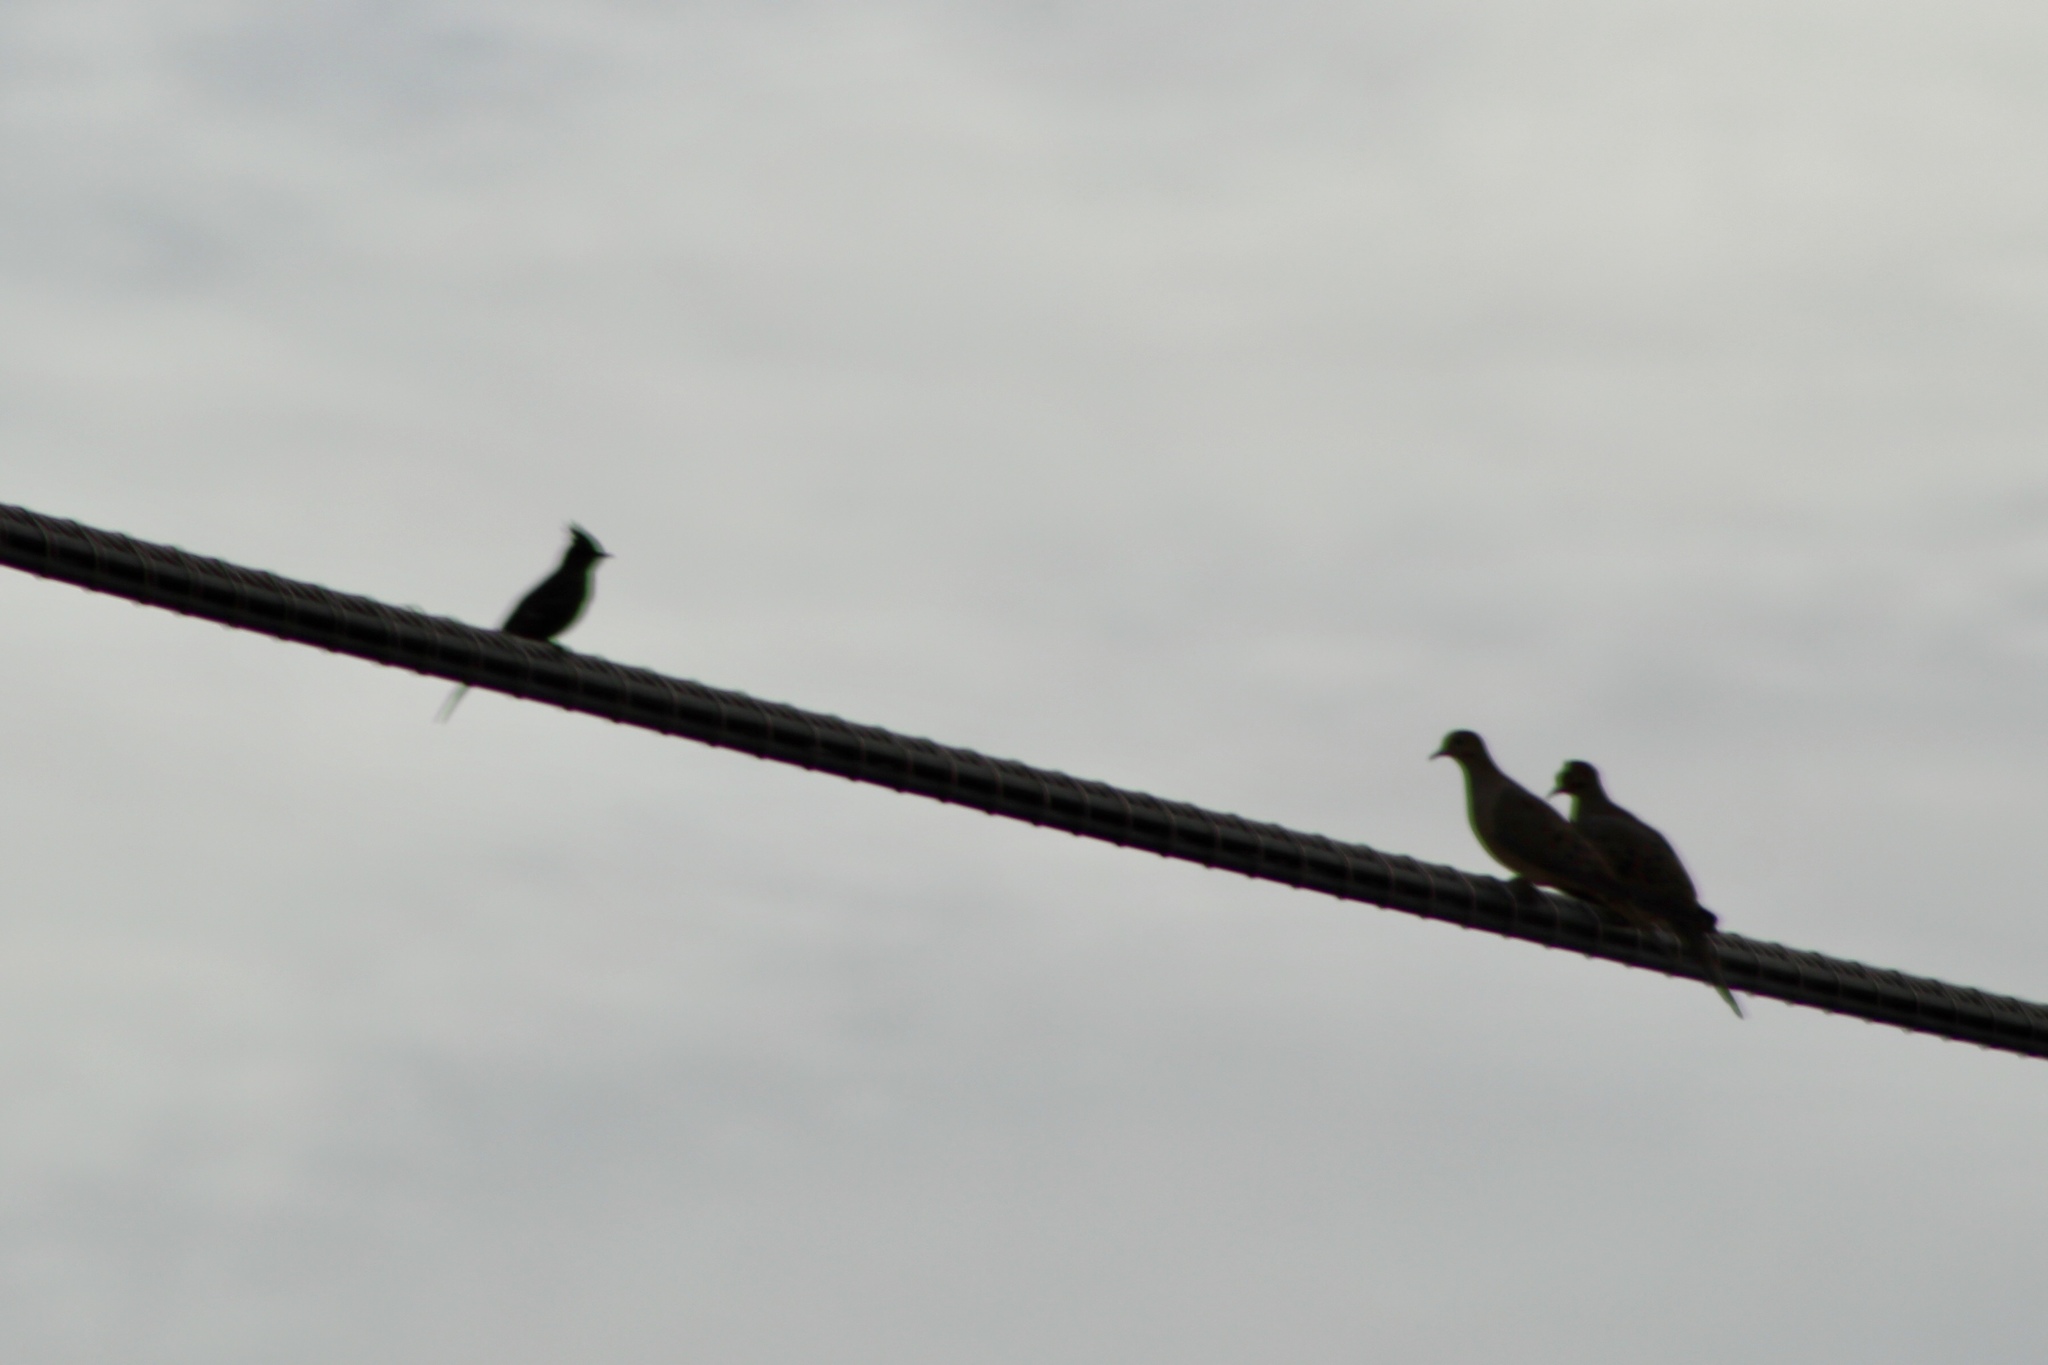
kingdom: Animalia
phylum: Chordata
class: Aves
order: Passeriformes
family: Ptilogonatidae
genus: Phainopepla
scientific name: Phainopepla nitens
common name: Phainopepla
